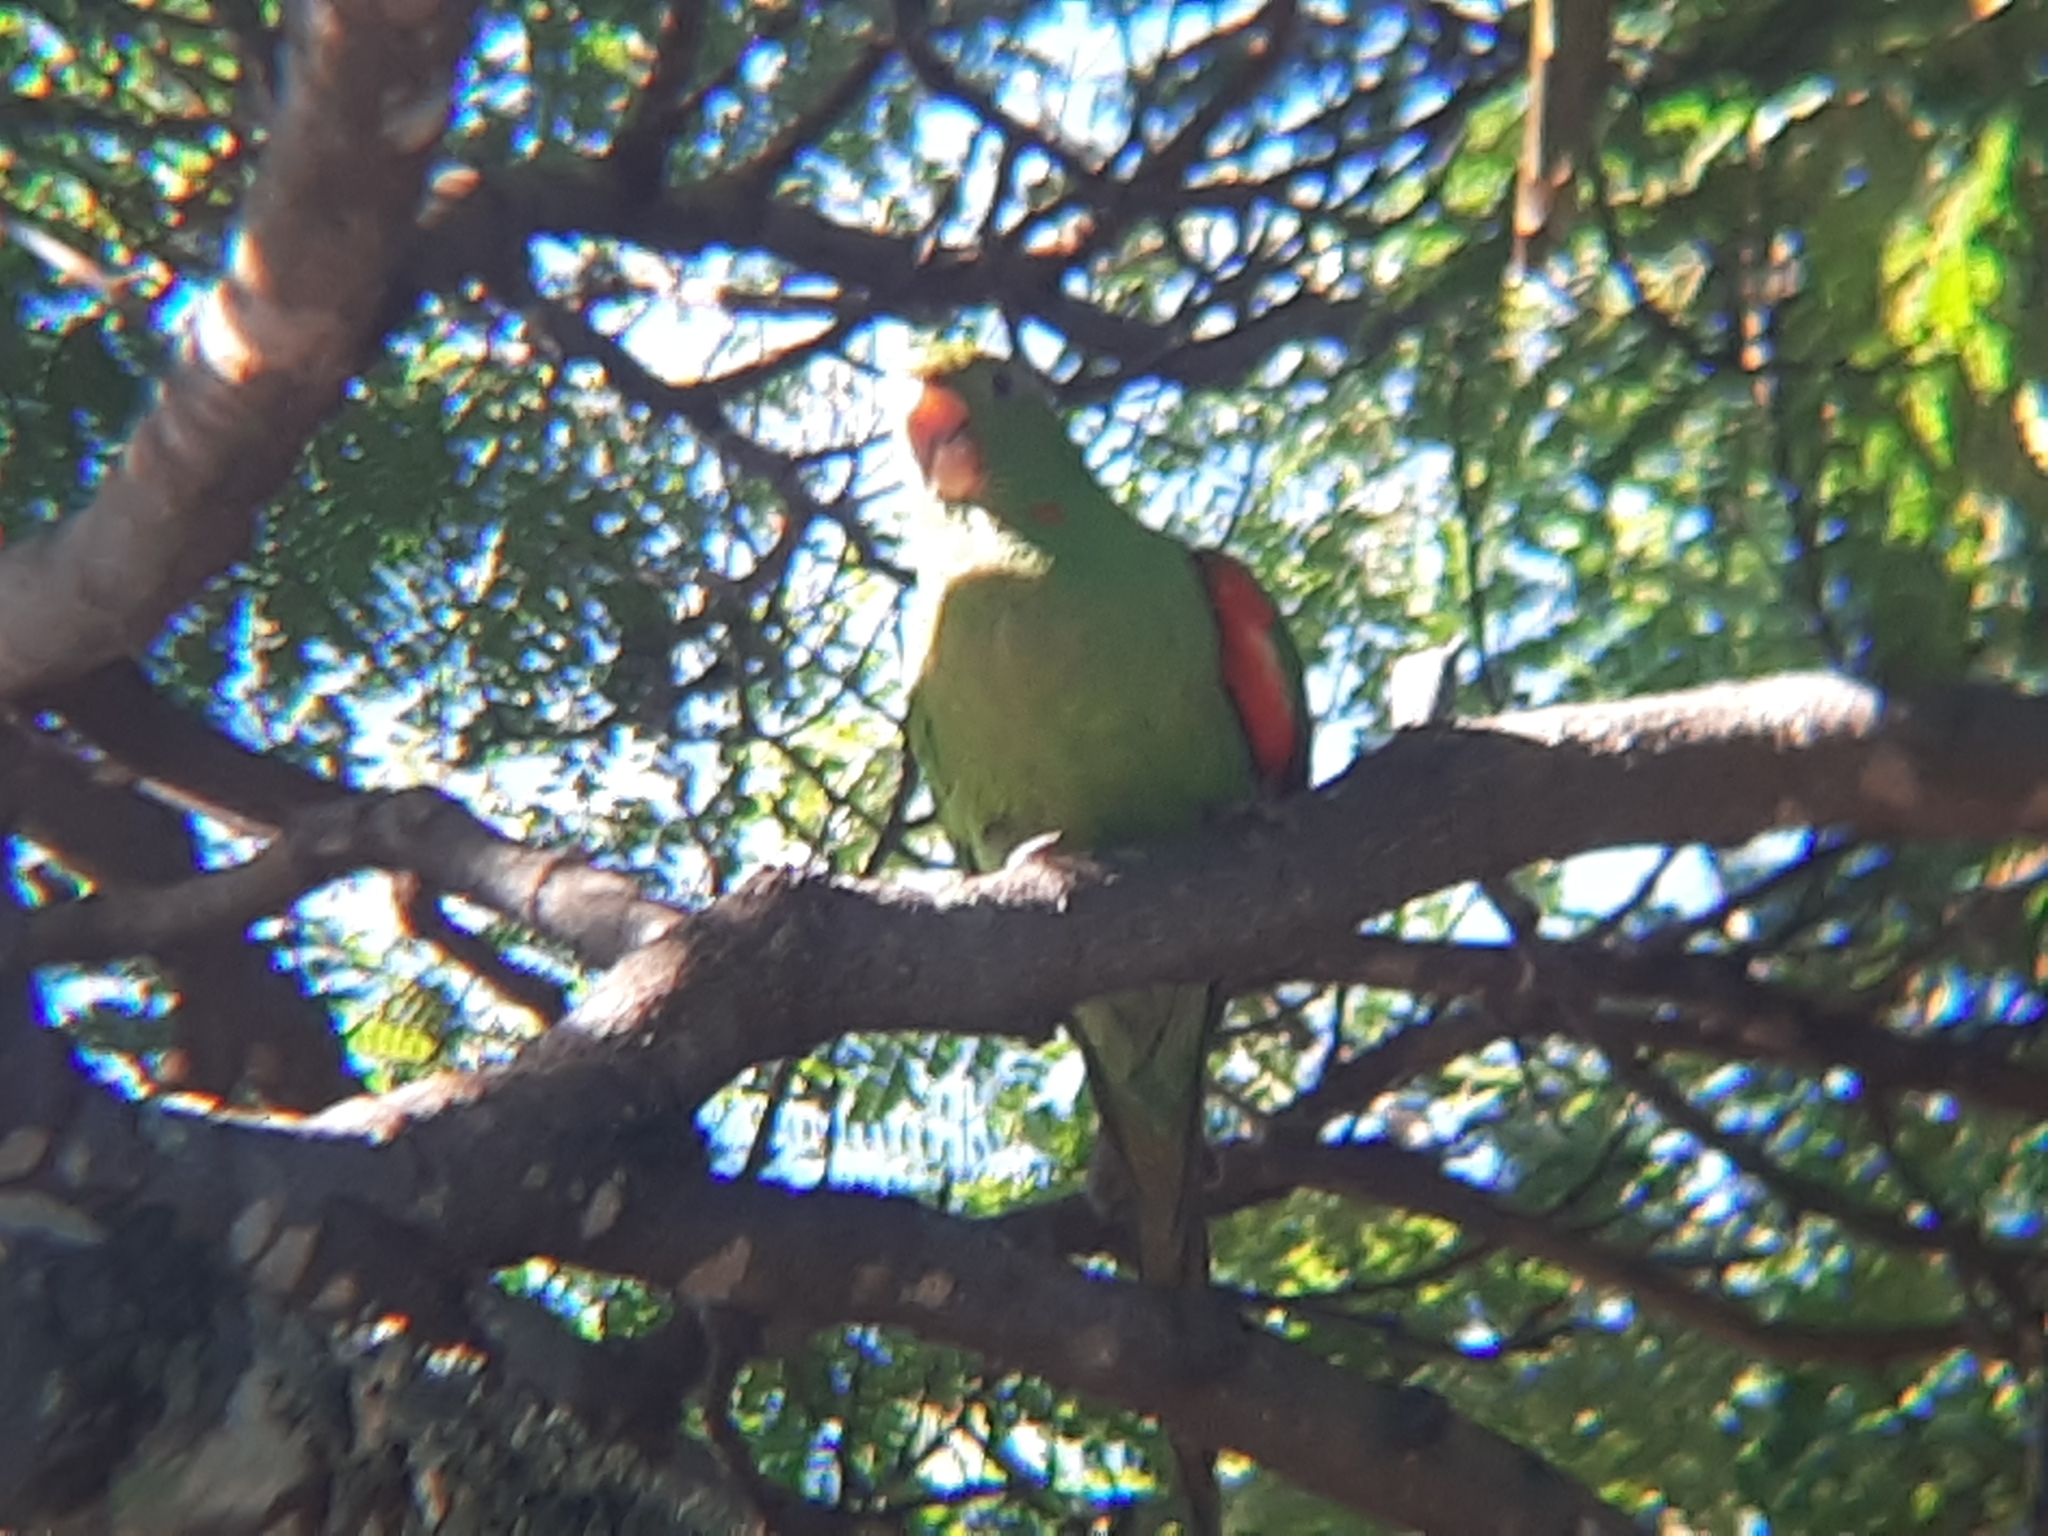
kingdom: Animalia
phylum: Chordata
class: Aves
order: Psittaciformes
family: Psittacidae
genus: Aratinga
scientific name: Aratinga leucophthalma
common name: White-eyed parakeet
